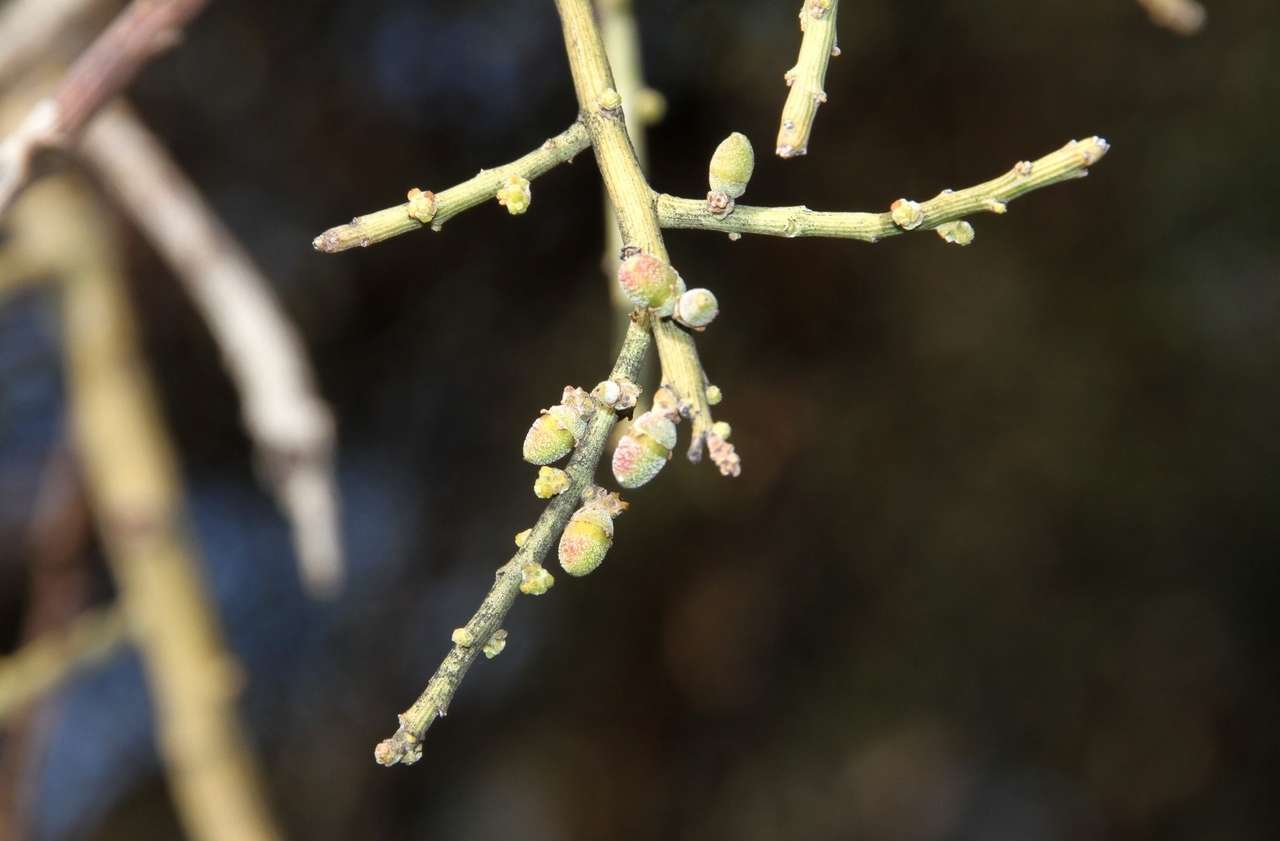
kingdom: Plantae
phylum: Tracheophyta
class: Magnoliopsida
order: Santalales
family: Santalaceae
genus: Exocarpos
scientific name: Exocarpos aphyllus
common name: Leafless ballart
